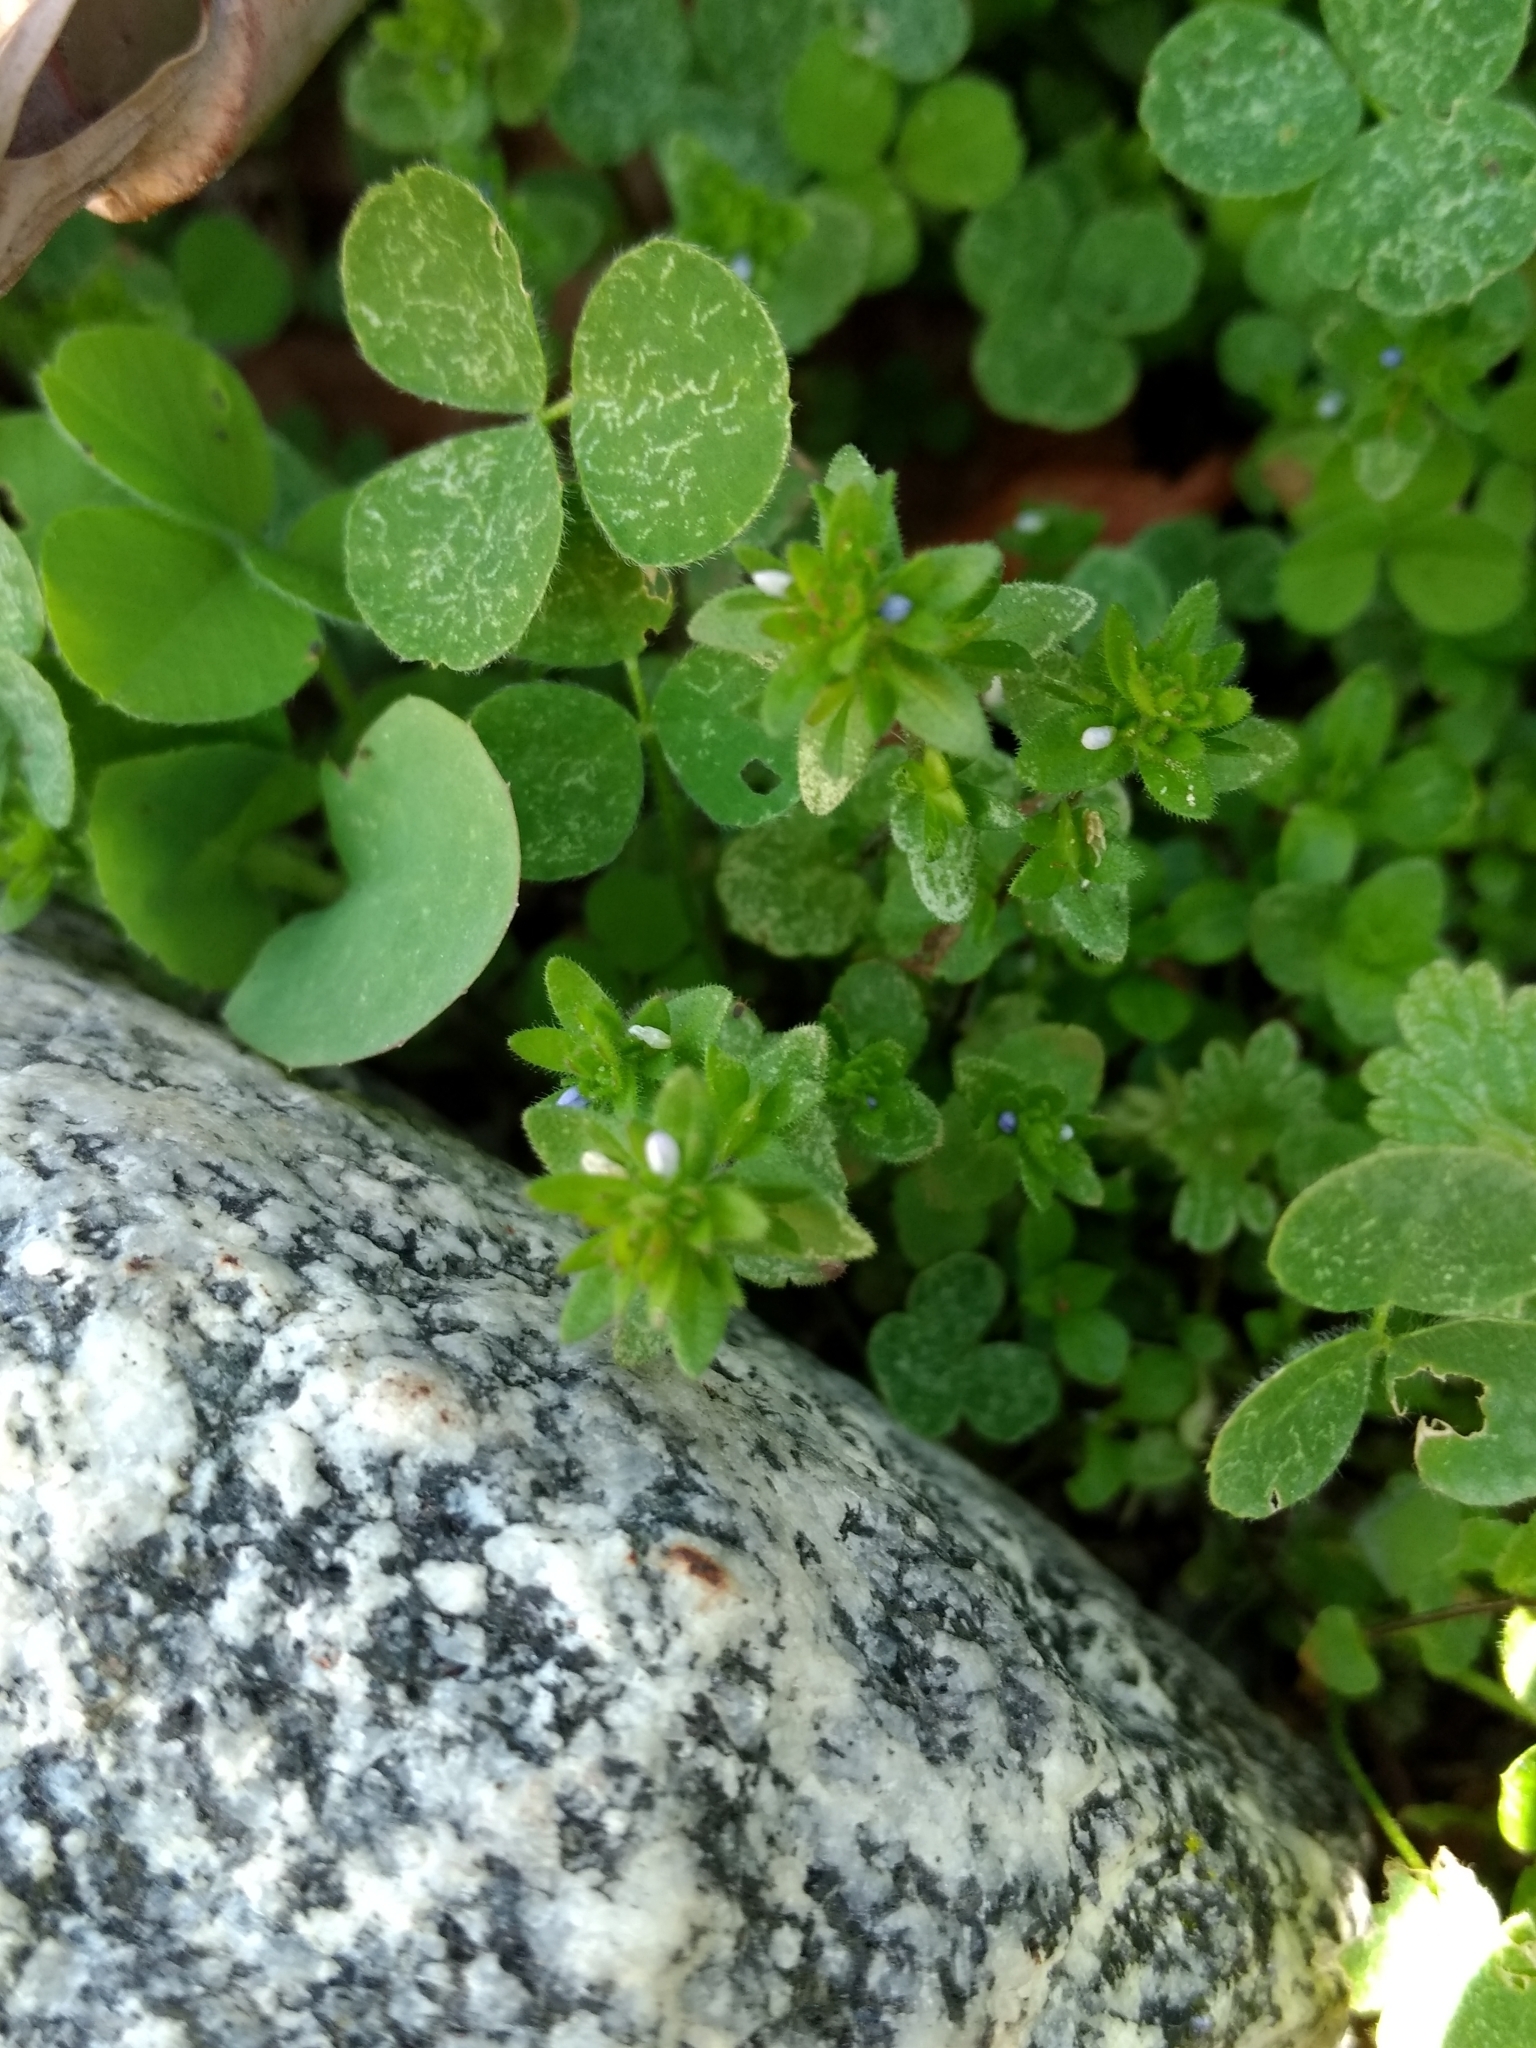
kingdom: Plantae
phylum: Tracheophyta
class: Magnoliopsida
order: Lamiales
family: Plantaginaceae
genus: Veronica
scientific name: Veronica arvensis
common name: Corn speedwell
